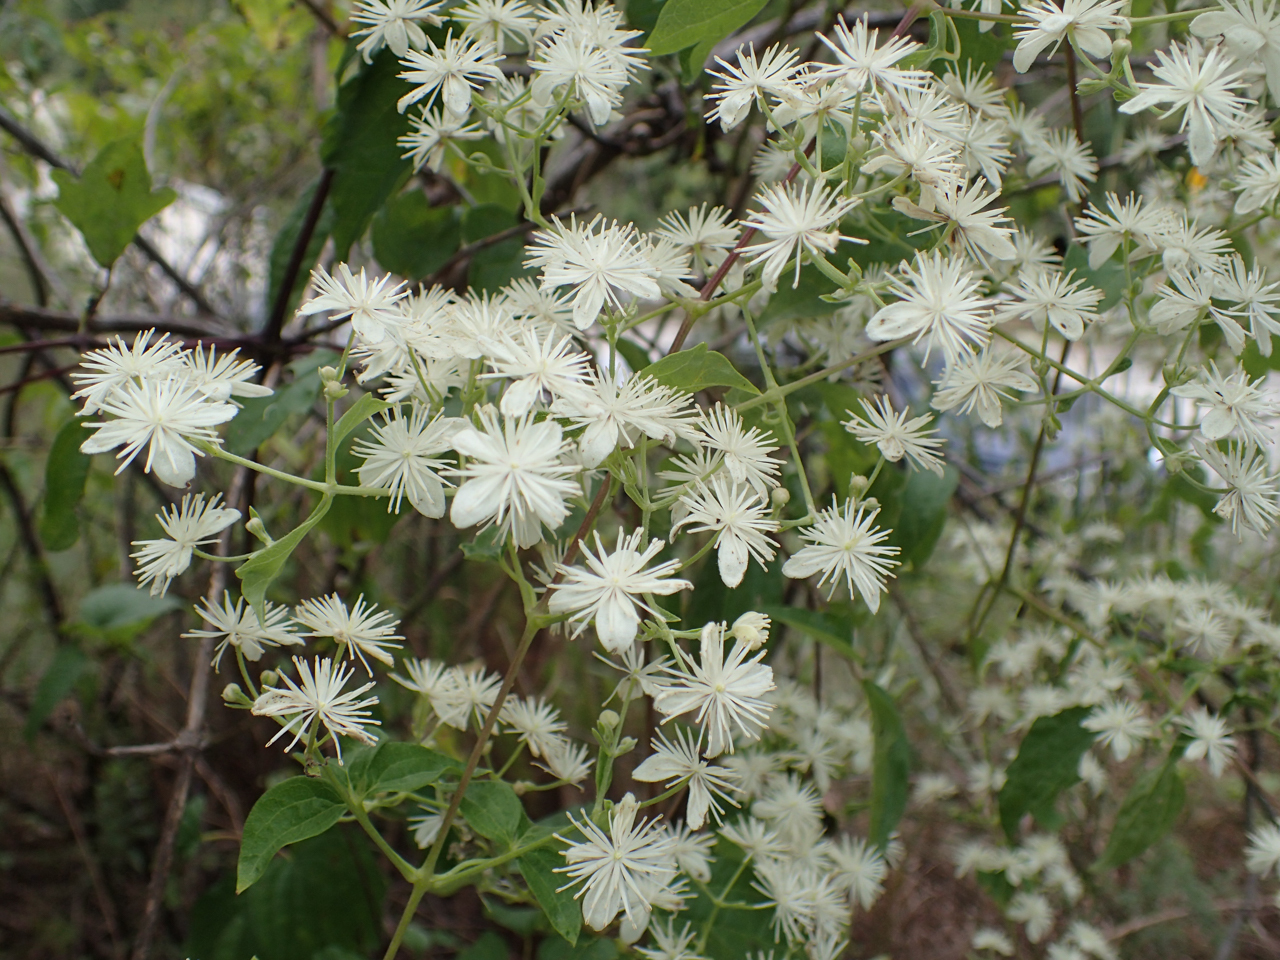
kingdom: Plantae
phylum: Tracheophyta
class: Magnoliopsida
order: Ranunculales
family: Ranunculaceae
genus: Clematis
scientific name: Clematis terniflora
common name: Sweet autumn clematis
